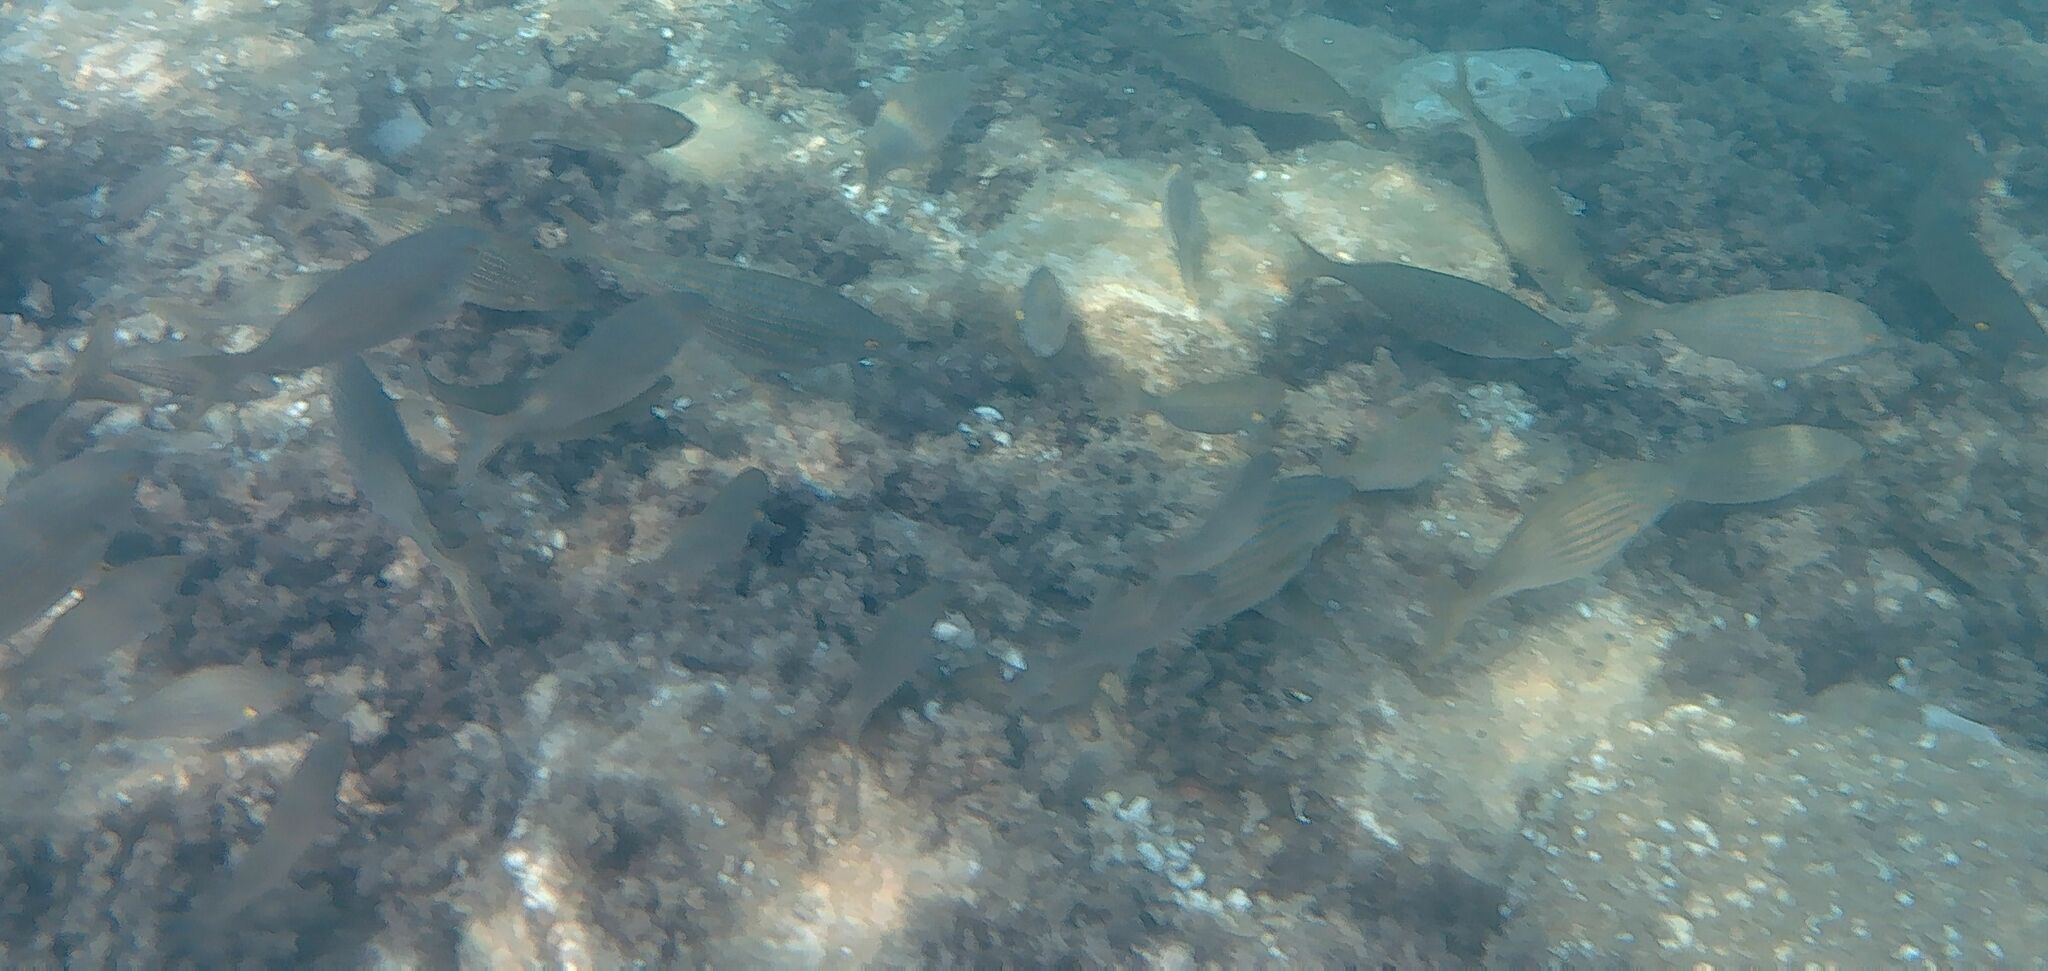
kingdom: Animalia
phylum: Chordata
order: Perciformes
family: Sparidae
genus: Sarpa
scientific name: Sarpa salpa
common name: Salema
